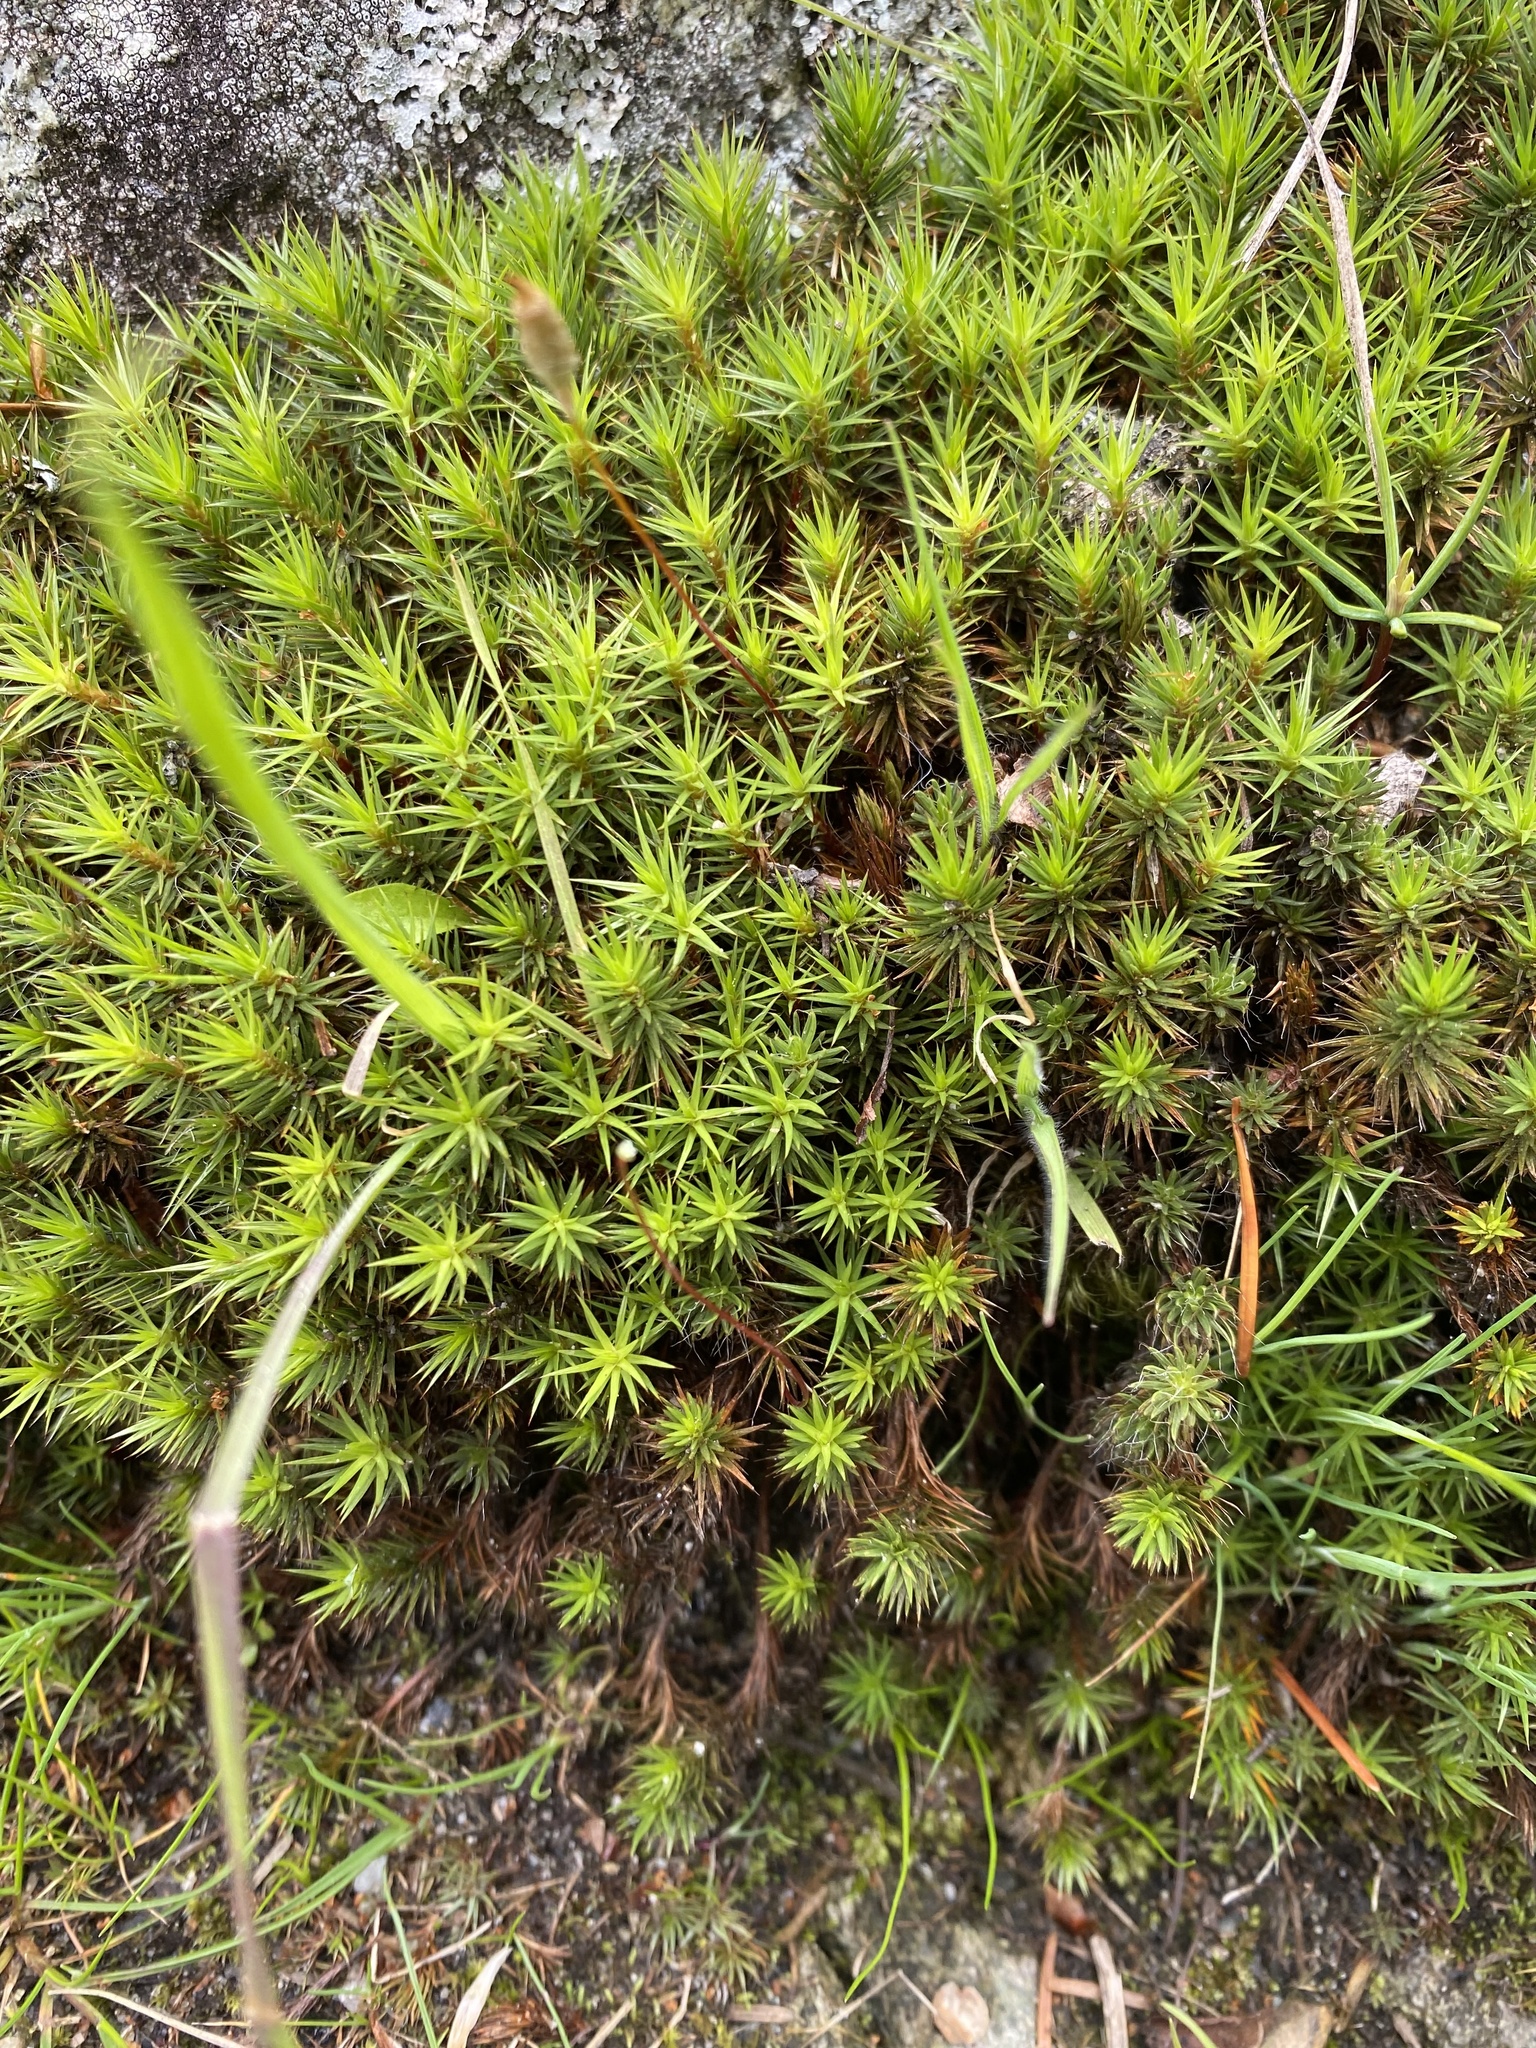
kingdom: Plantae
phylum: Bryophyta
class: Polytrichopsida
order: Polytrichales
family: Polytrichaceae
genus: Polytrichum
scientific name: Polytrichum juniperinum
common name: Juniper haircap moss
